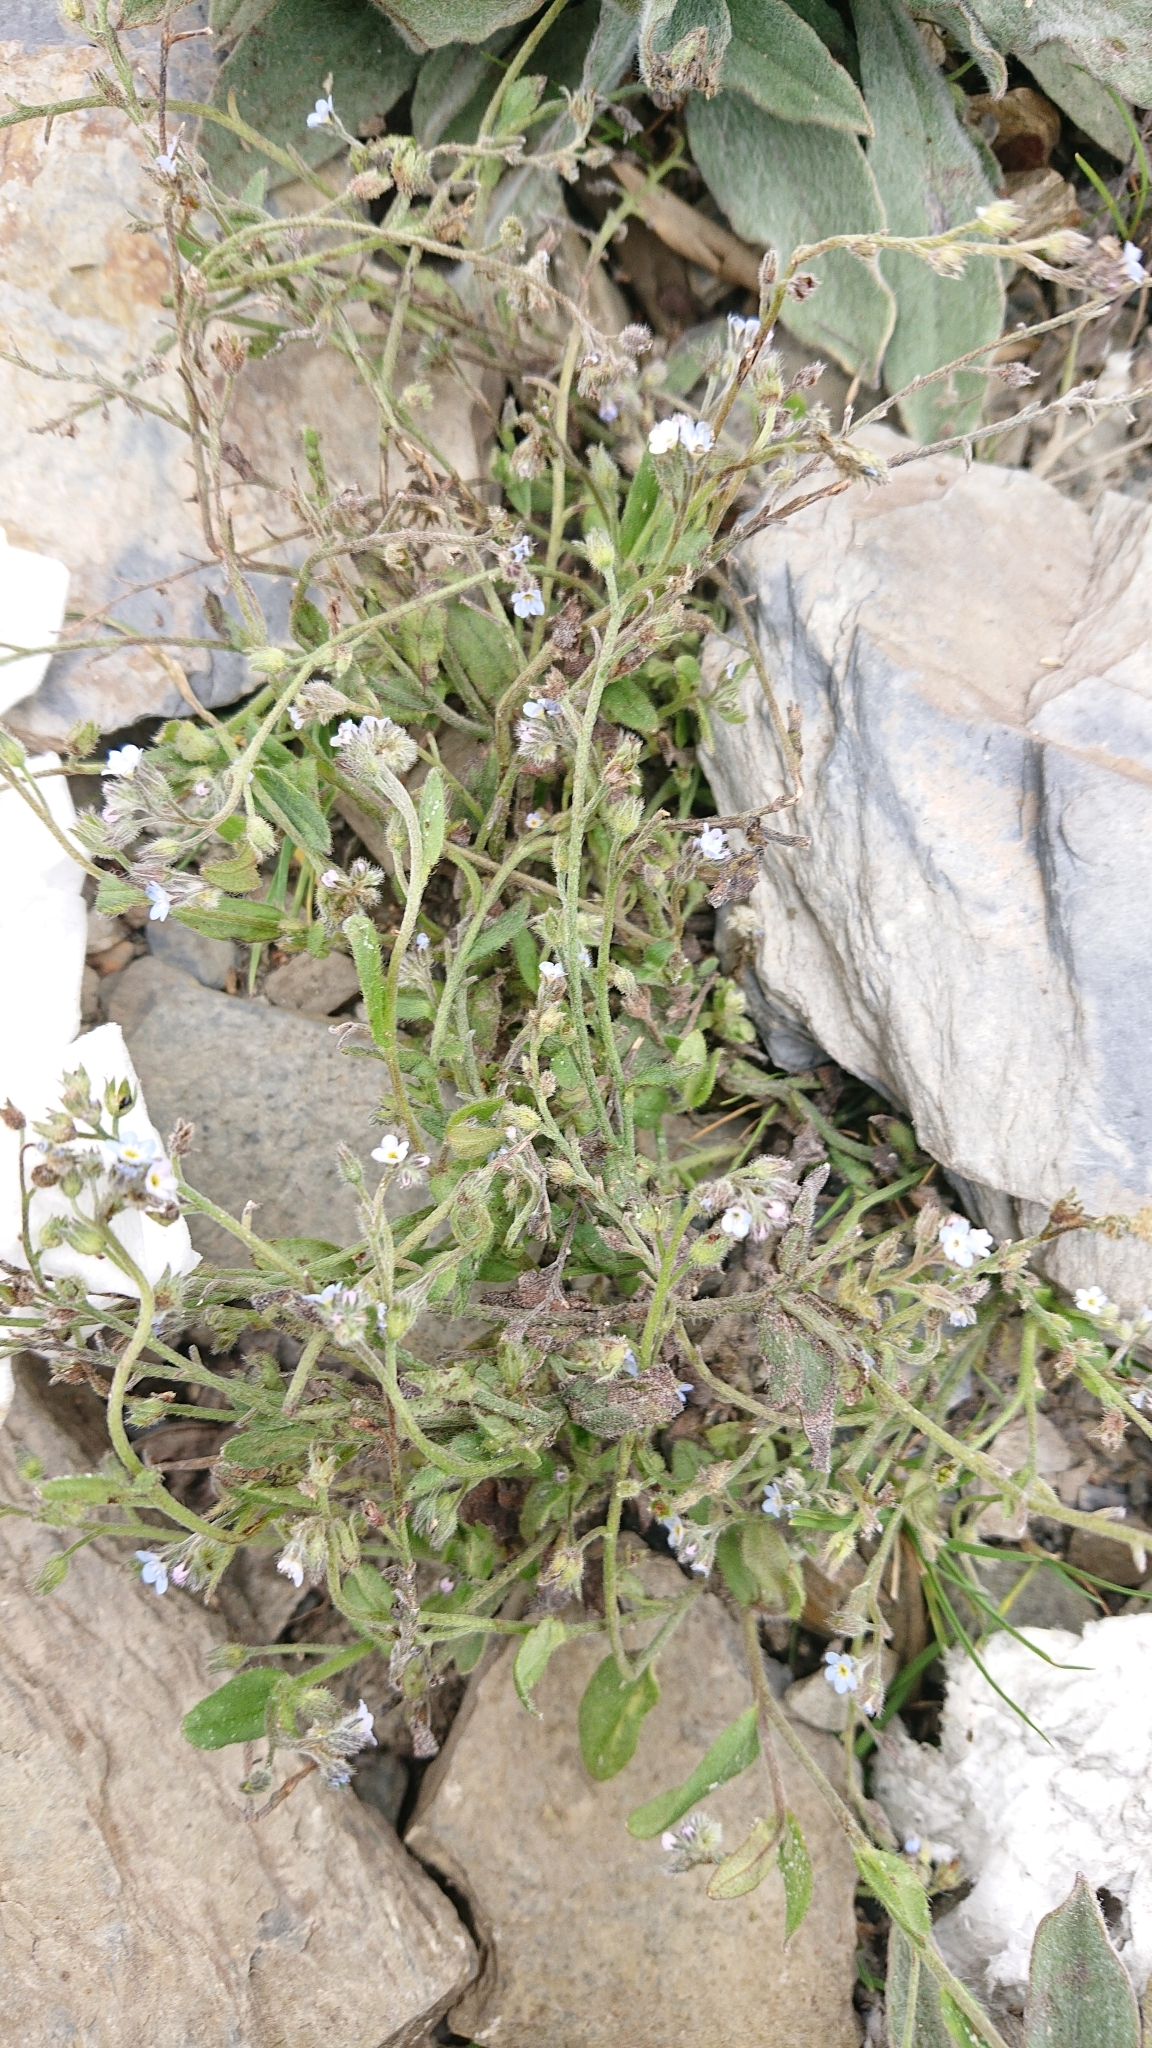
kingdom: Plantae
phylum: Tracheophyta
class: Magnoliopsida
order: Boraginales
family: Boraginaceae
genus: Myosotis
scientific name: Myosotis arvensis
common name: Field forget-me-not
